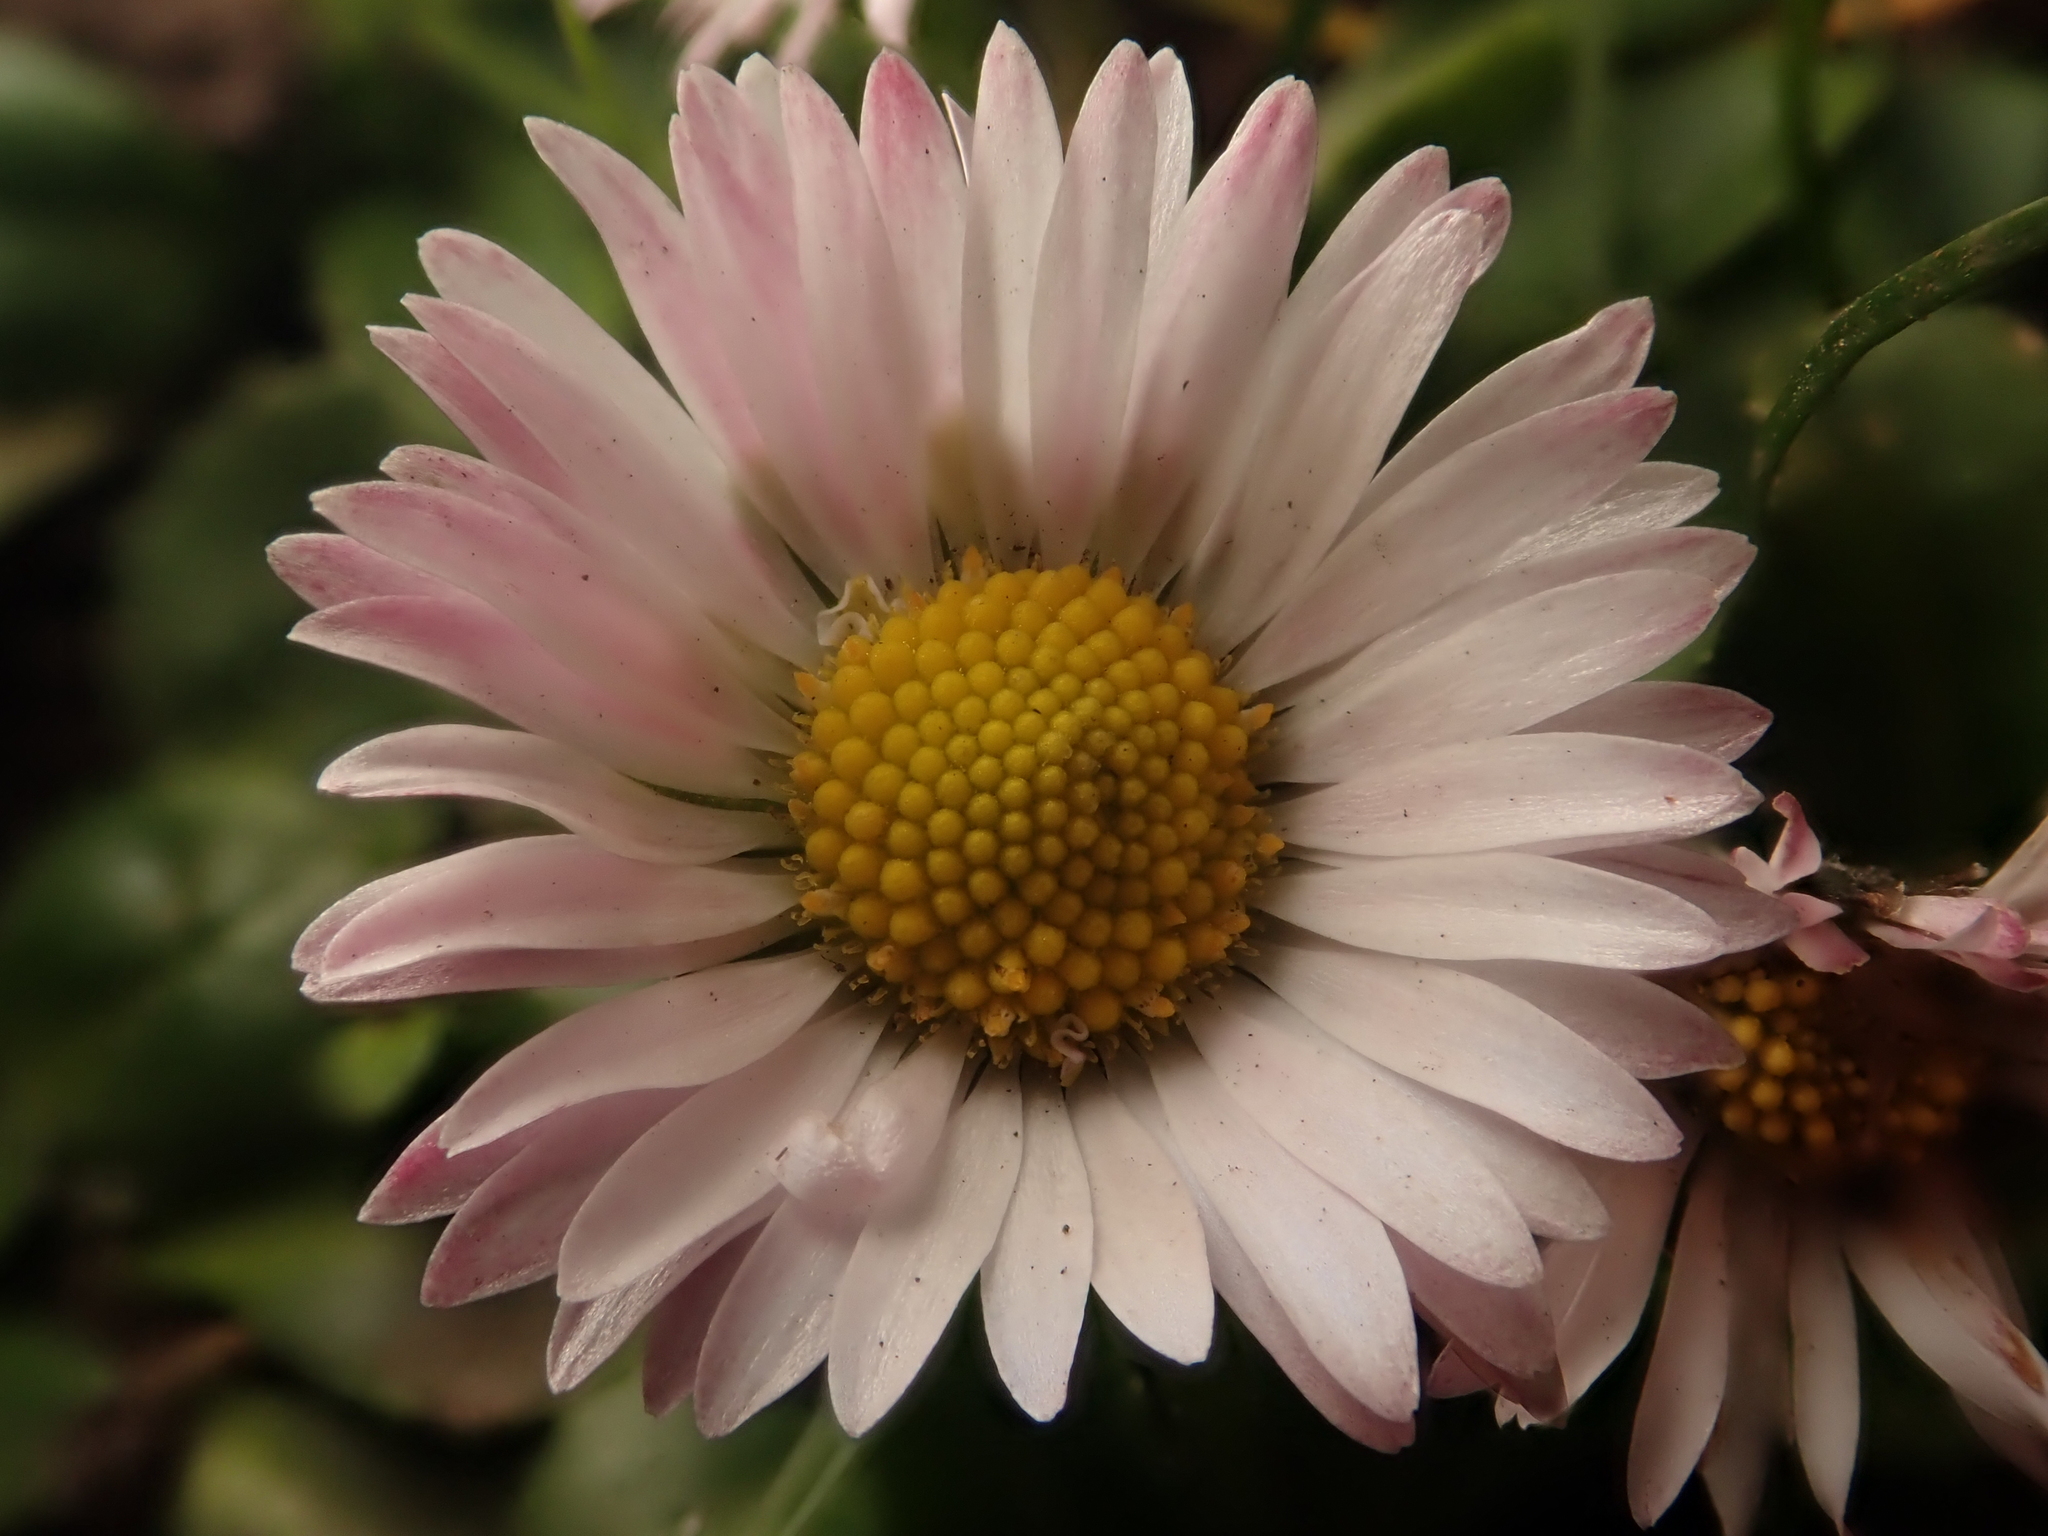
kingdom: Plantae
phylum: Tracheophyta
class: Magnoliopsida
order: Asterales
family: Asteraceae
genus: Bellis
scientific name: Bellis perennis
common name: Lawndaisy
